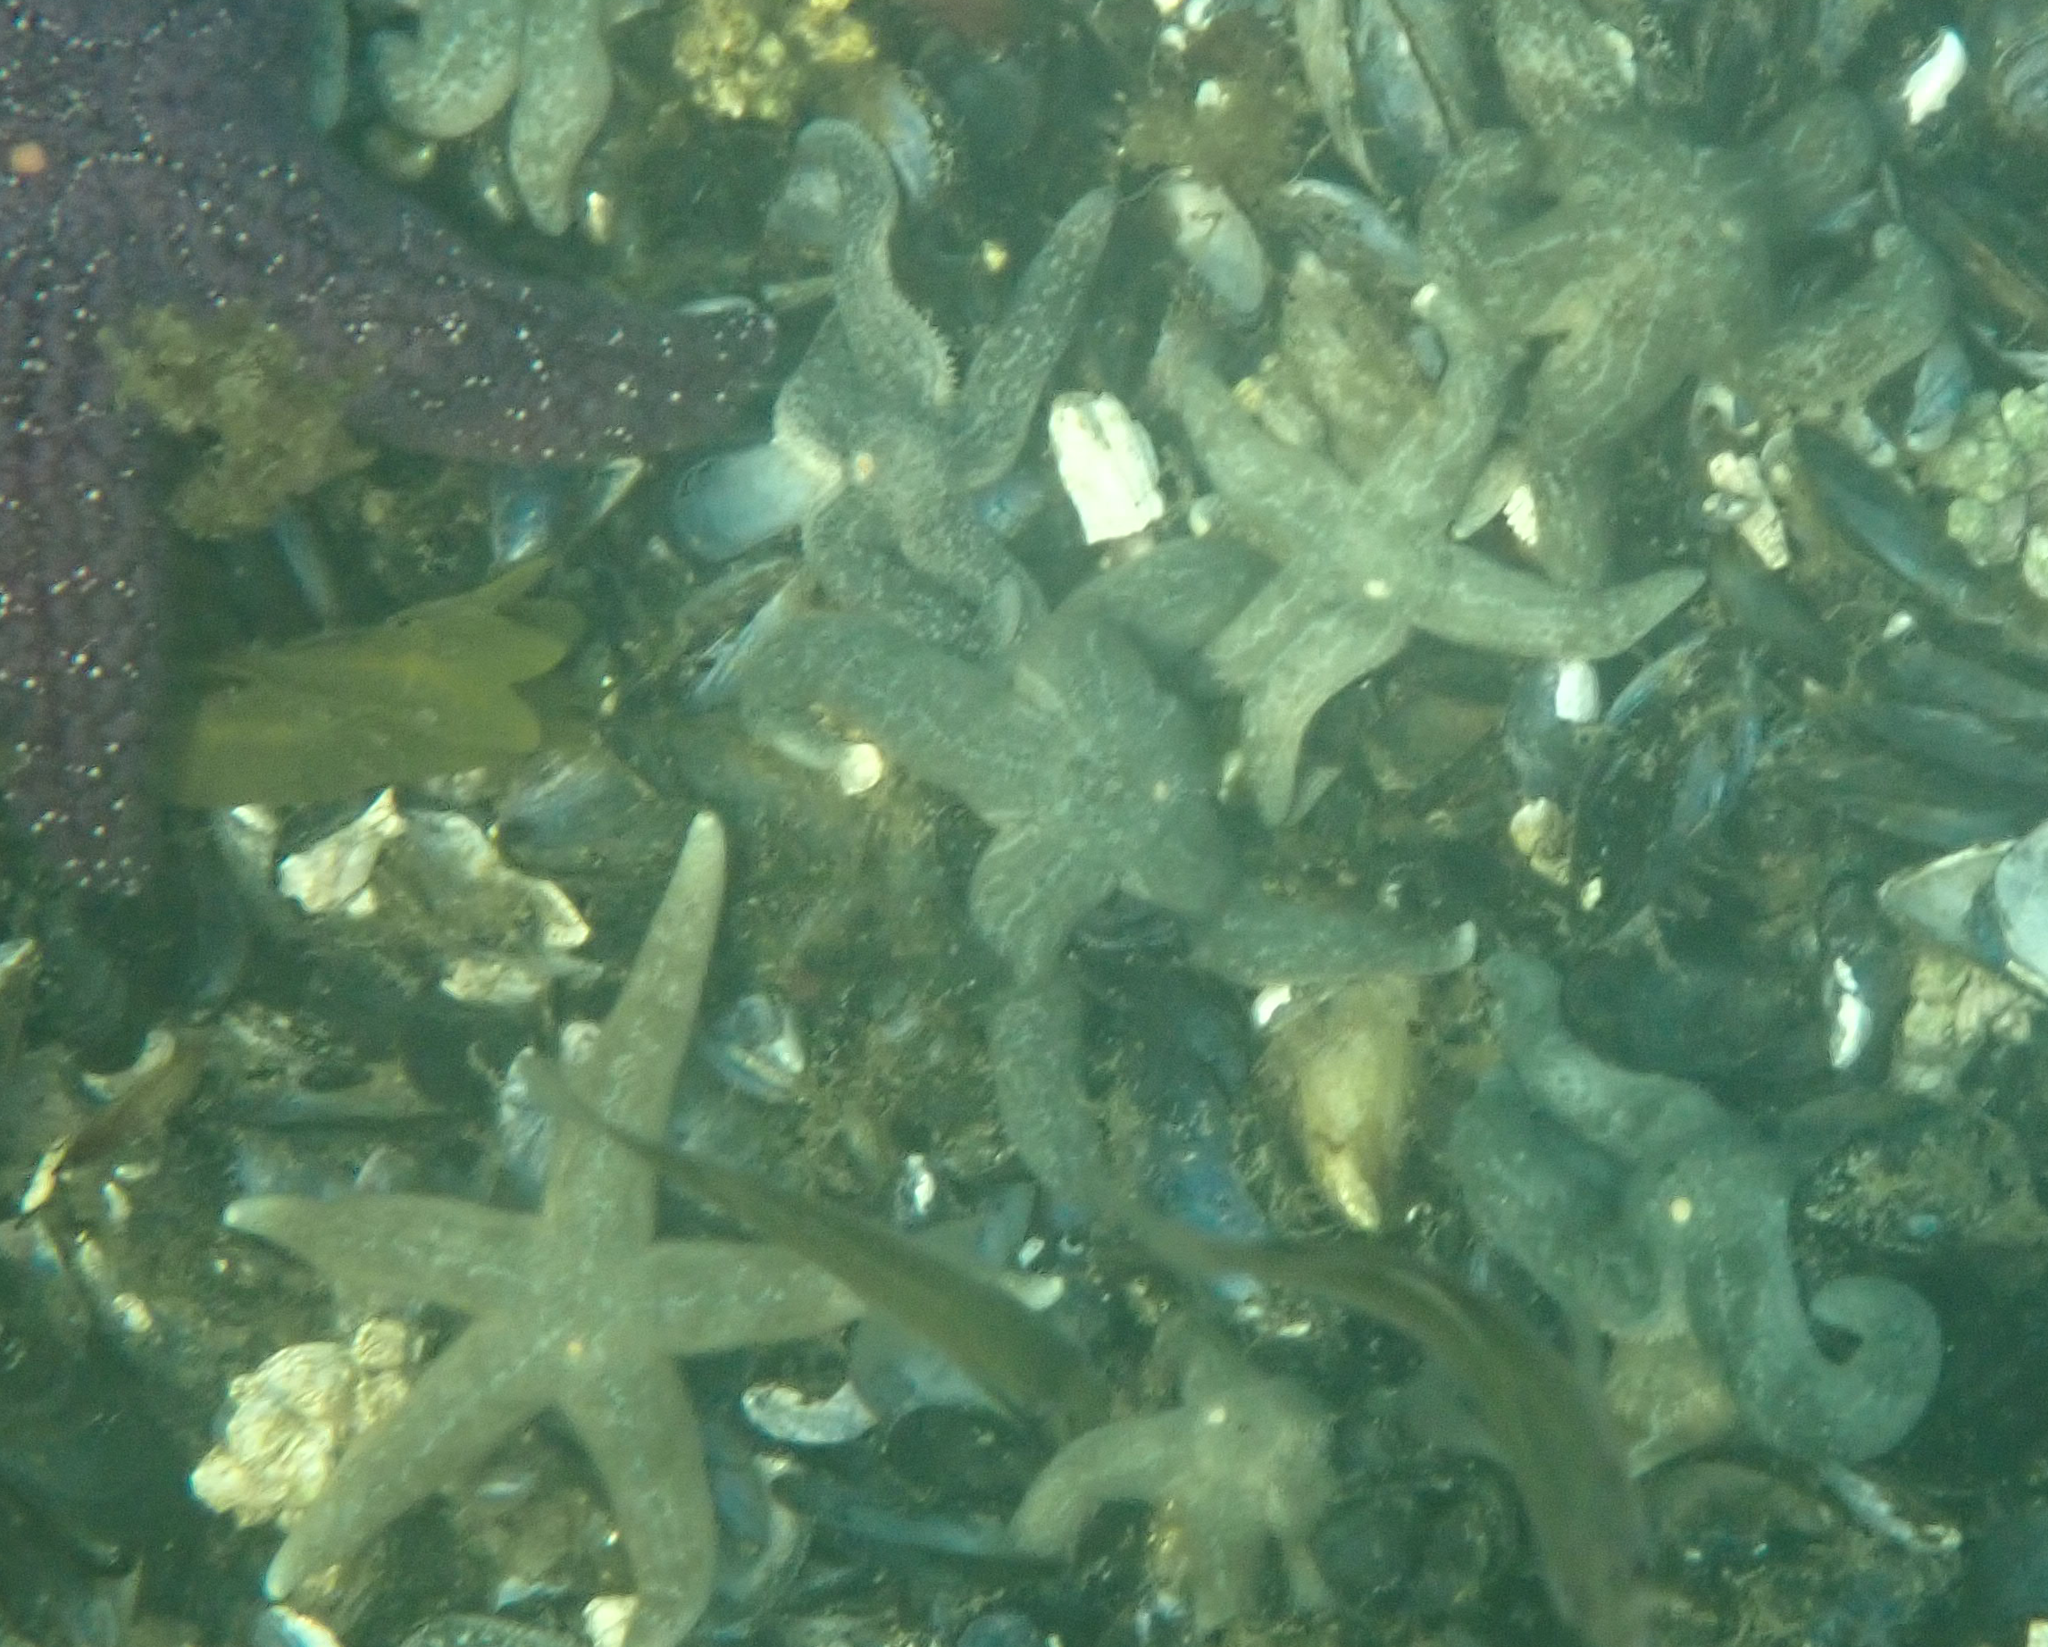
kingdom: Animalia
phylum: Echinodermata
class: Asteroidea
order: Forcipulatida
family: Asteriidae
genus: Evasterias
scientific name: Evasterias troschelii
